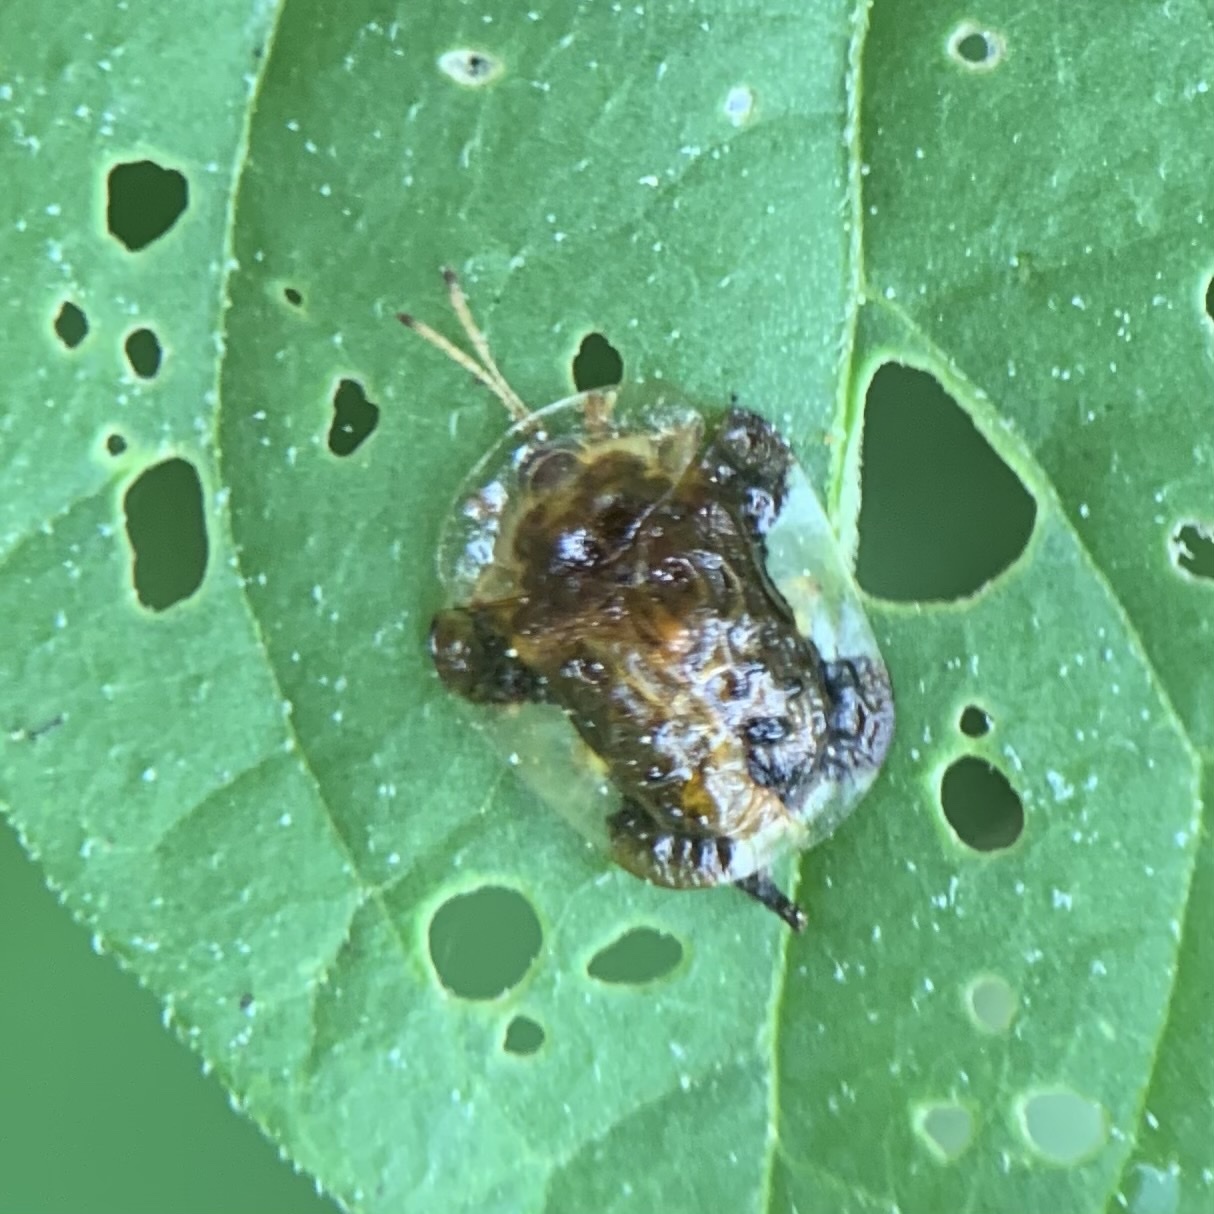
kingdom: Animalia
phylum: Arthropoda
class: Insecta
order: Coleoptera
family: Chrysomelidae
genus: Helocassis
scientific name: Helocassis clavata
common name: Clavate tortoise beetle
